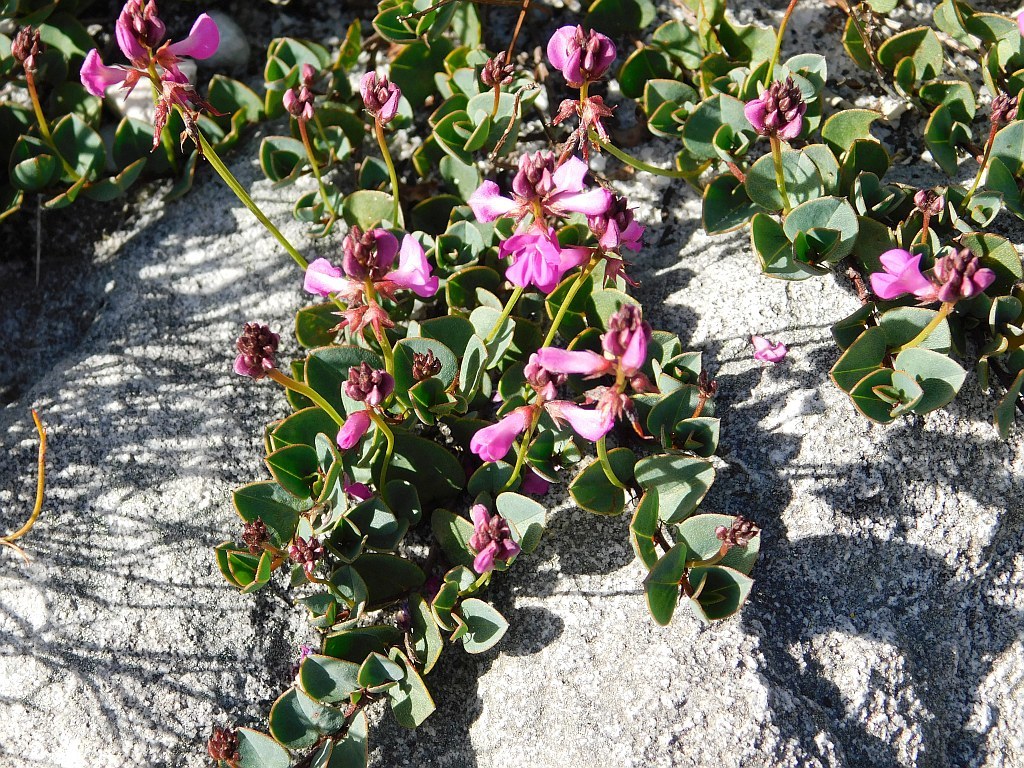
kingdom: Plantae
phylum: Tracheophyta
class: Magnoliopsida
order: Fabales
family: Fabaceae
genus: Indigofera
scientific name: Indigofera ovata
